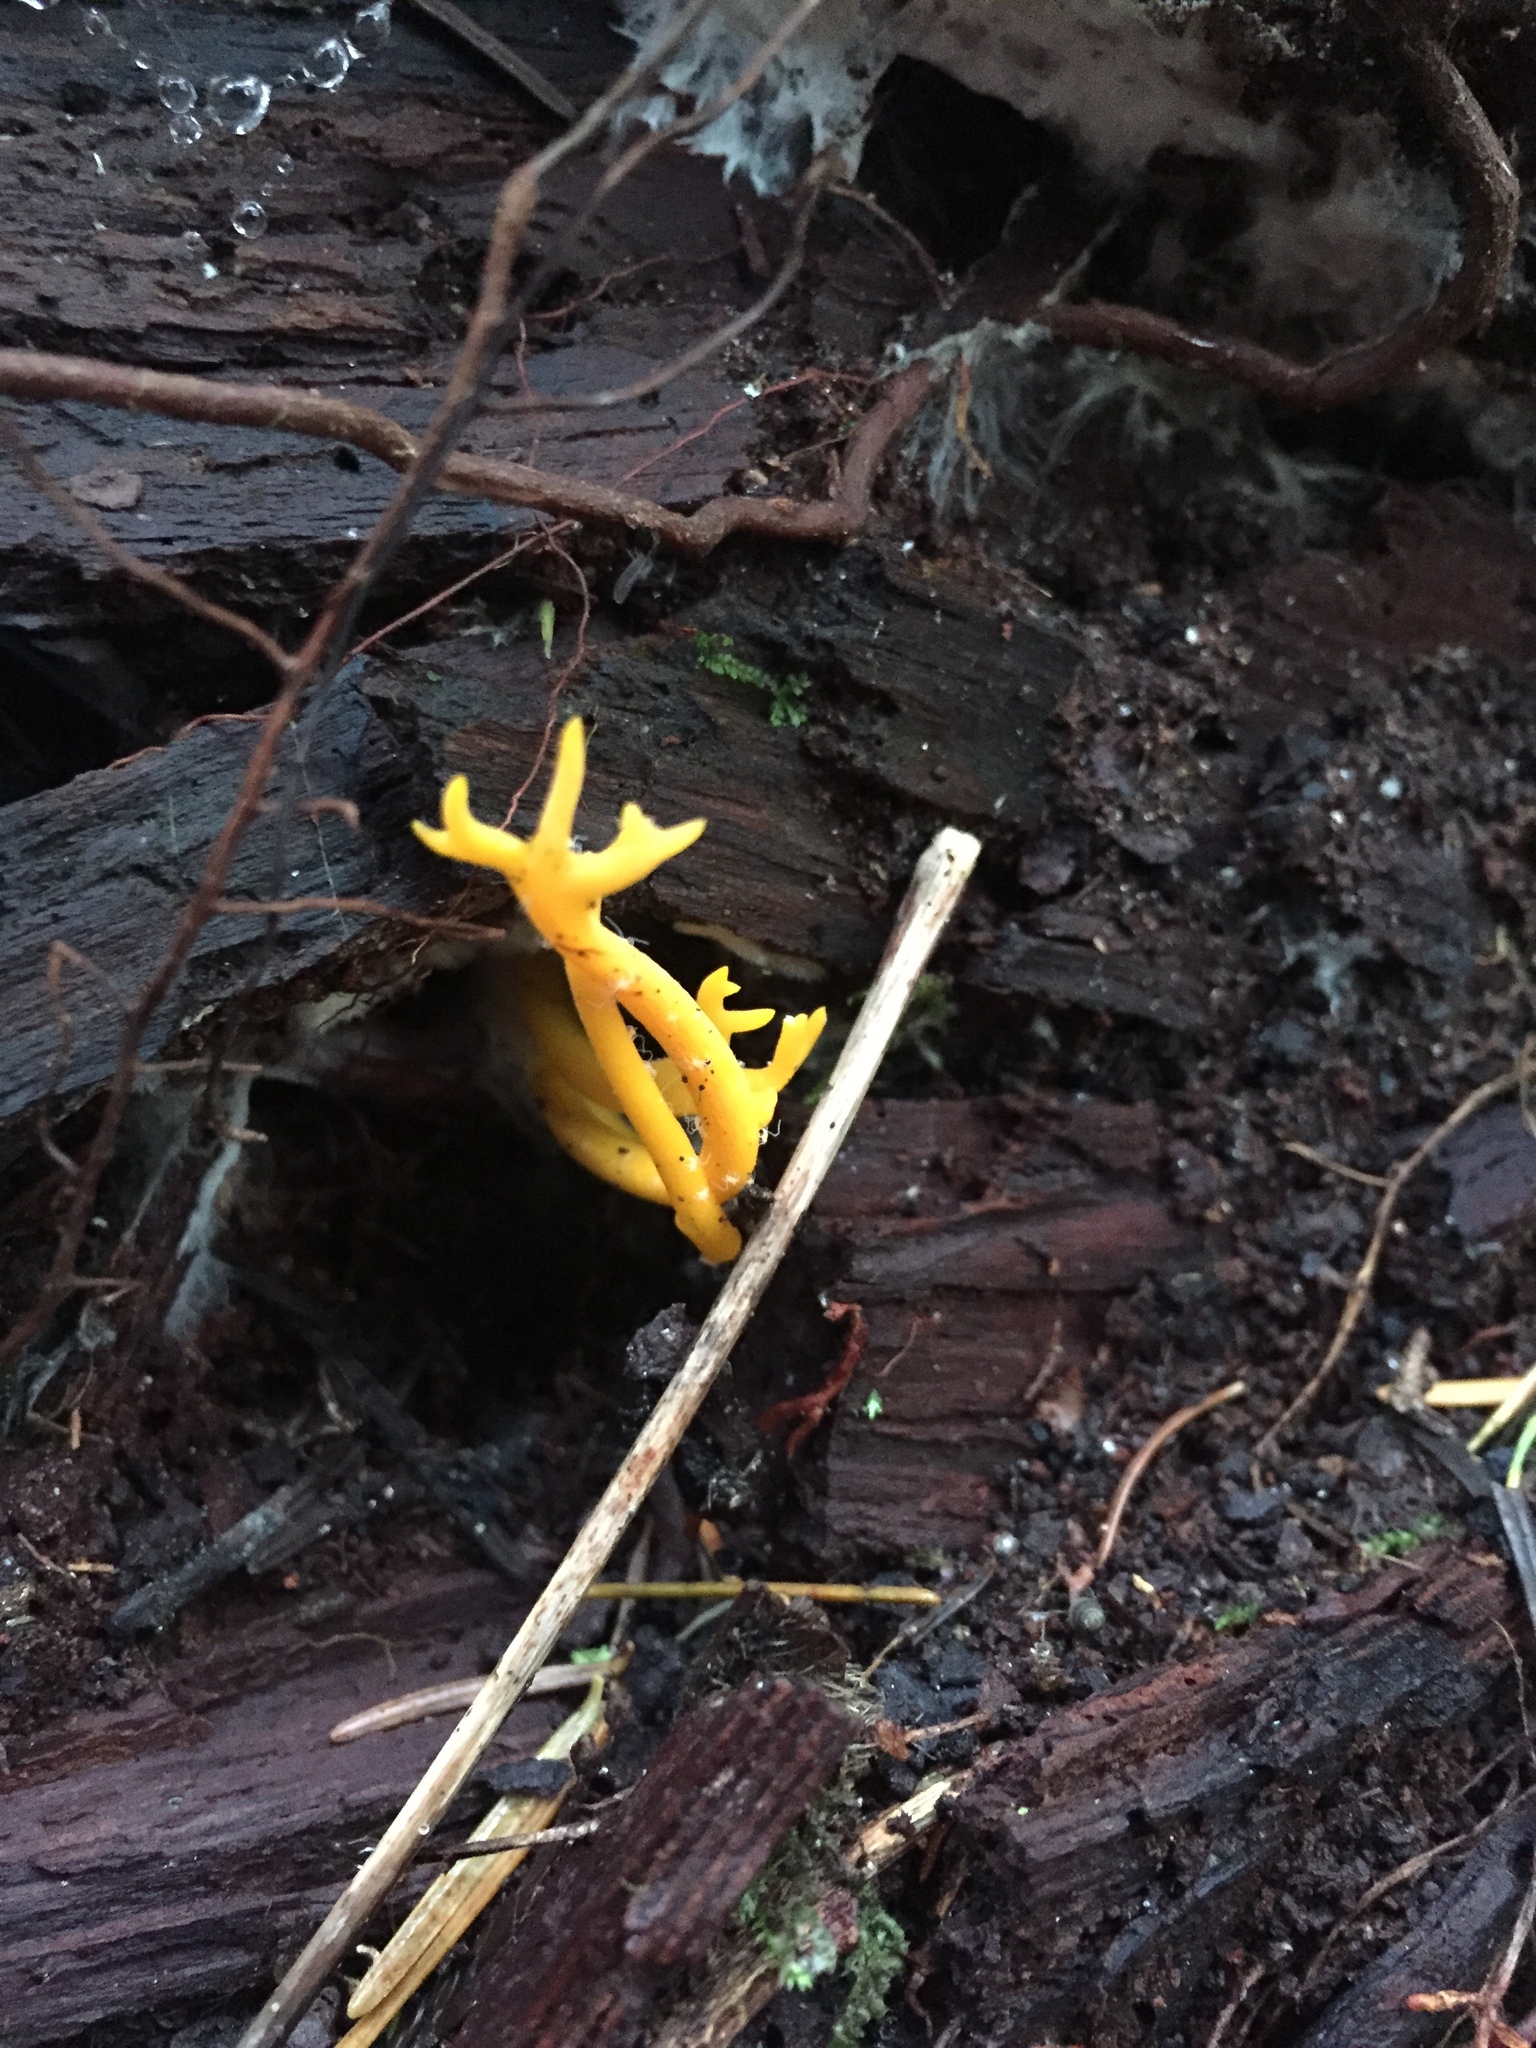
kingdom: Fungi
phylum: Basidiomycota
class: Dacrymycetes
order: Dacrymycetales
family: Dacrymycetaceae
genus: Calocera
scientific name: Calocera viscosa
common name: Yellow stagshorn
